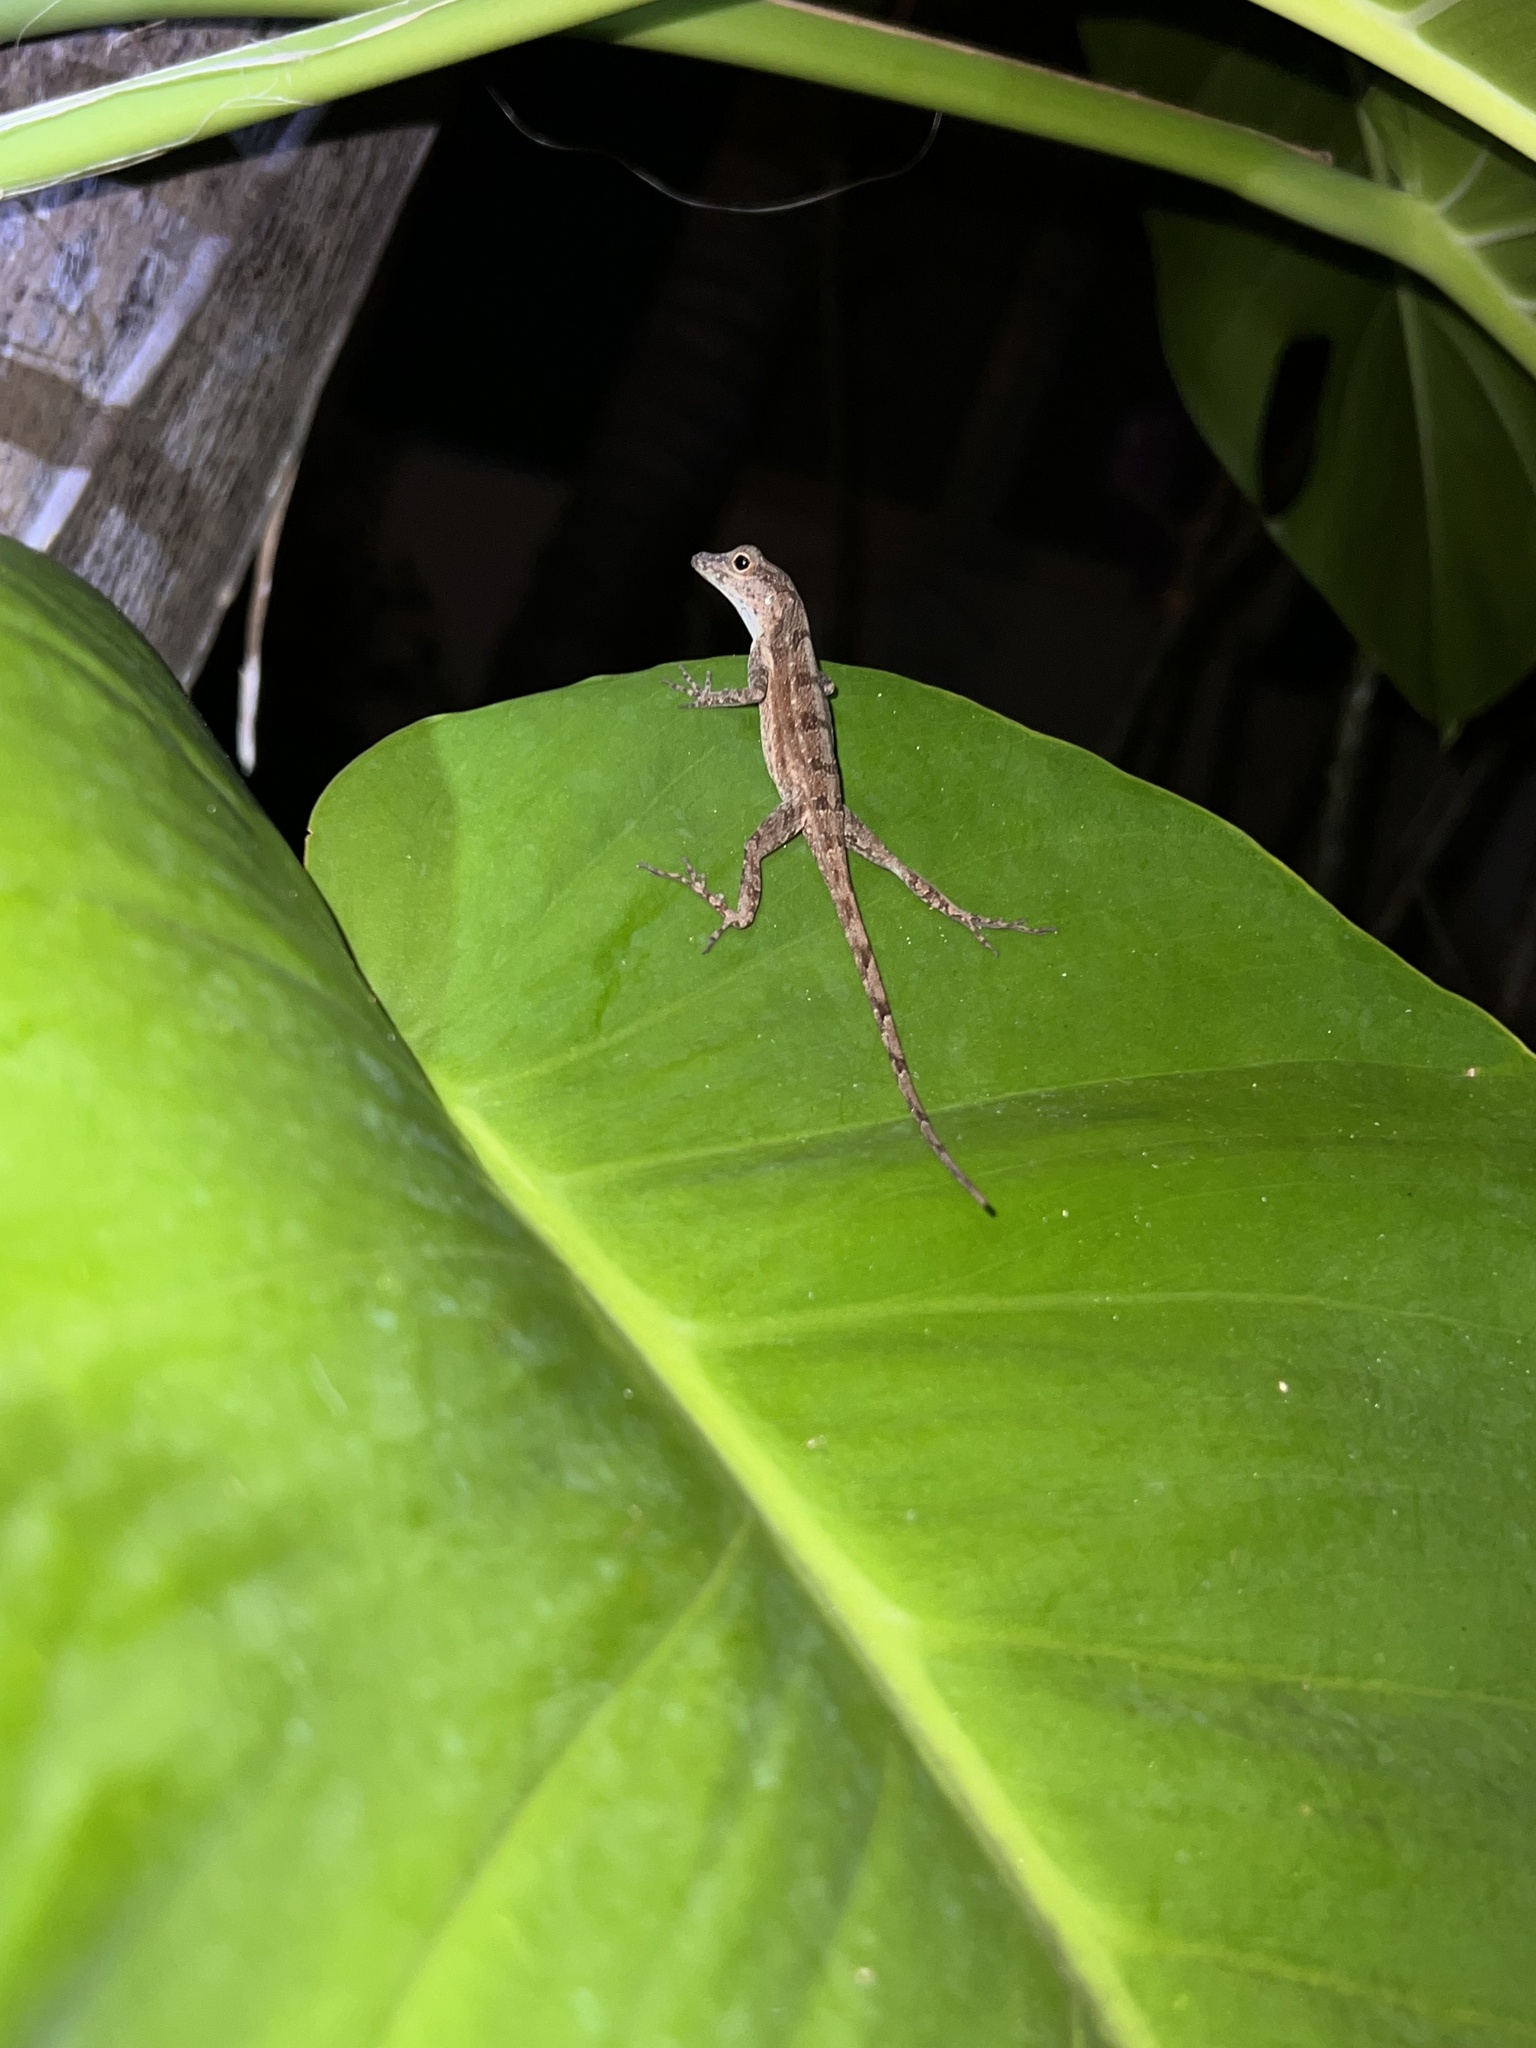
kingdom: Animalia
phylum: Chordata
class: Squamata
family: Dactyloidae
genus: Anolis
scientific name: Anolis cristatellus
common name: Crested anole
